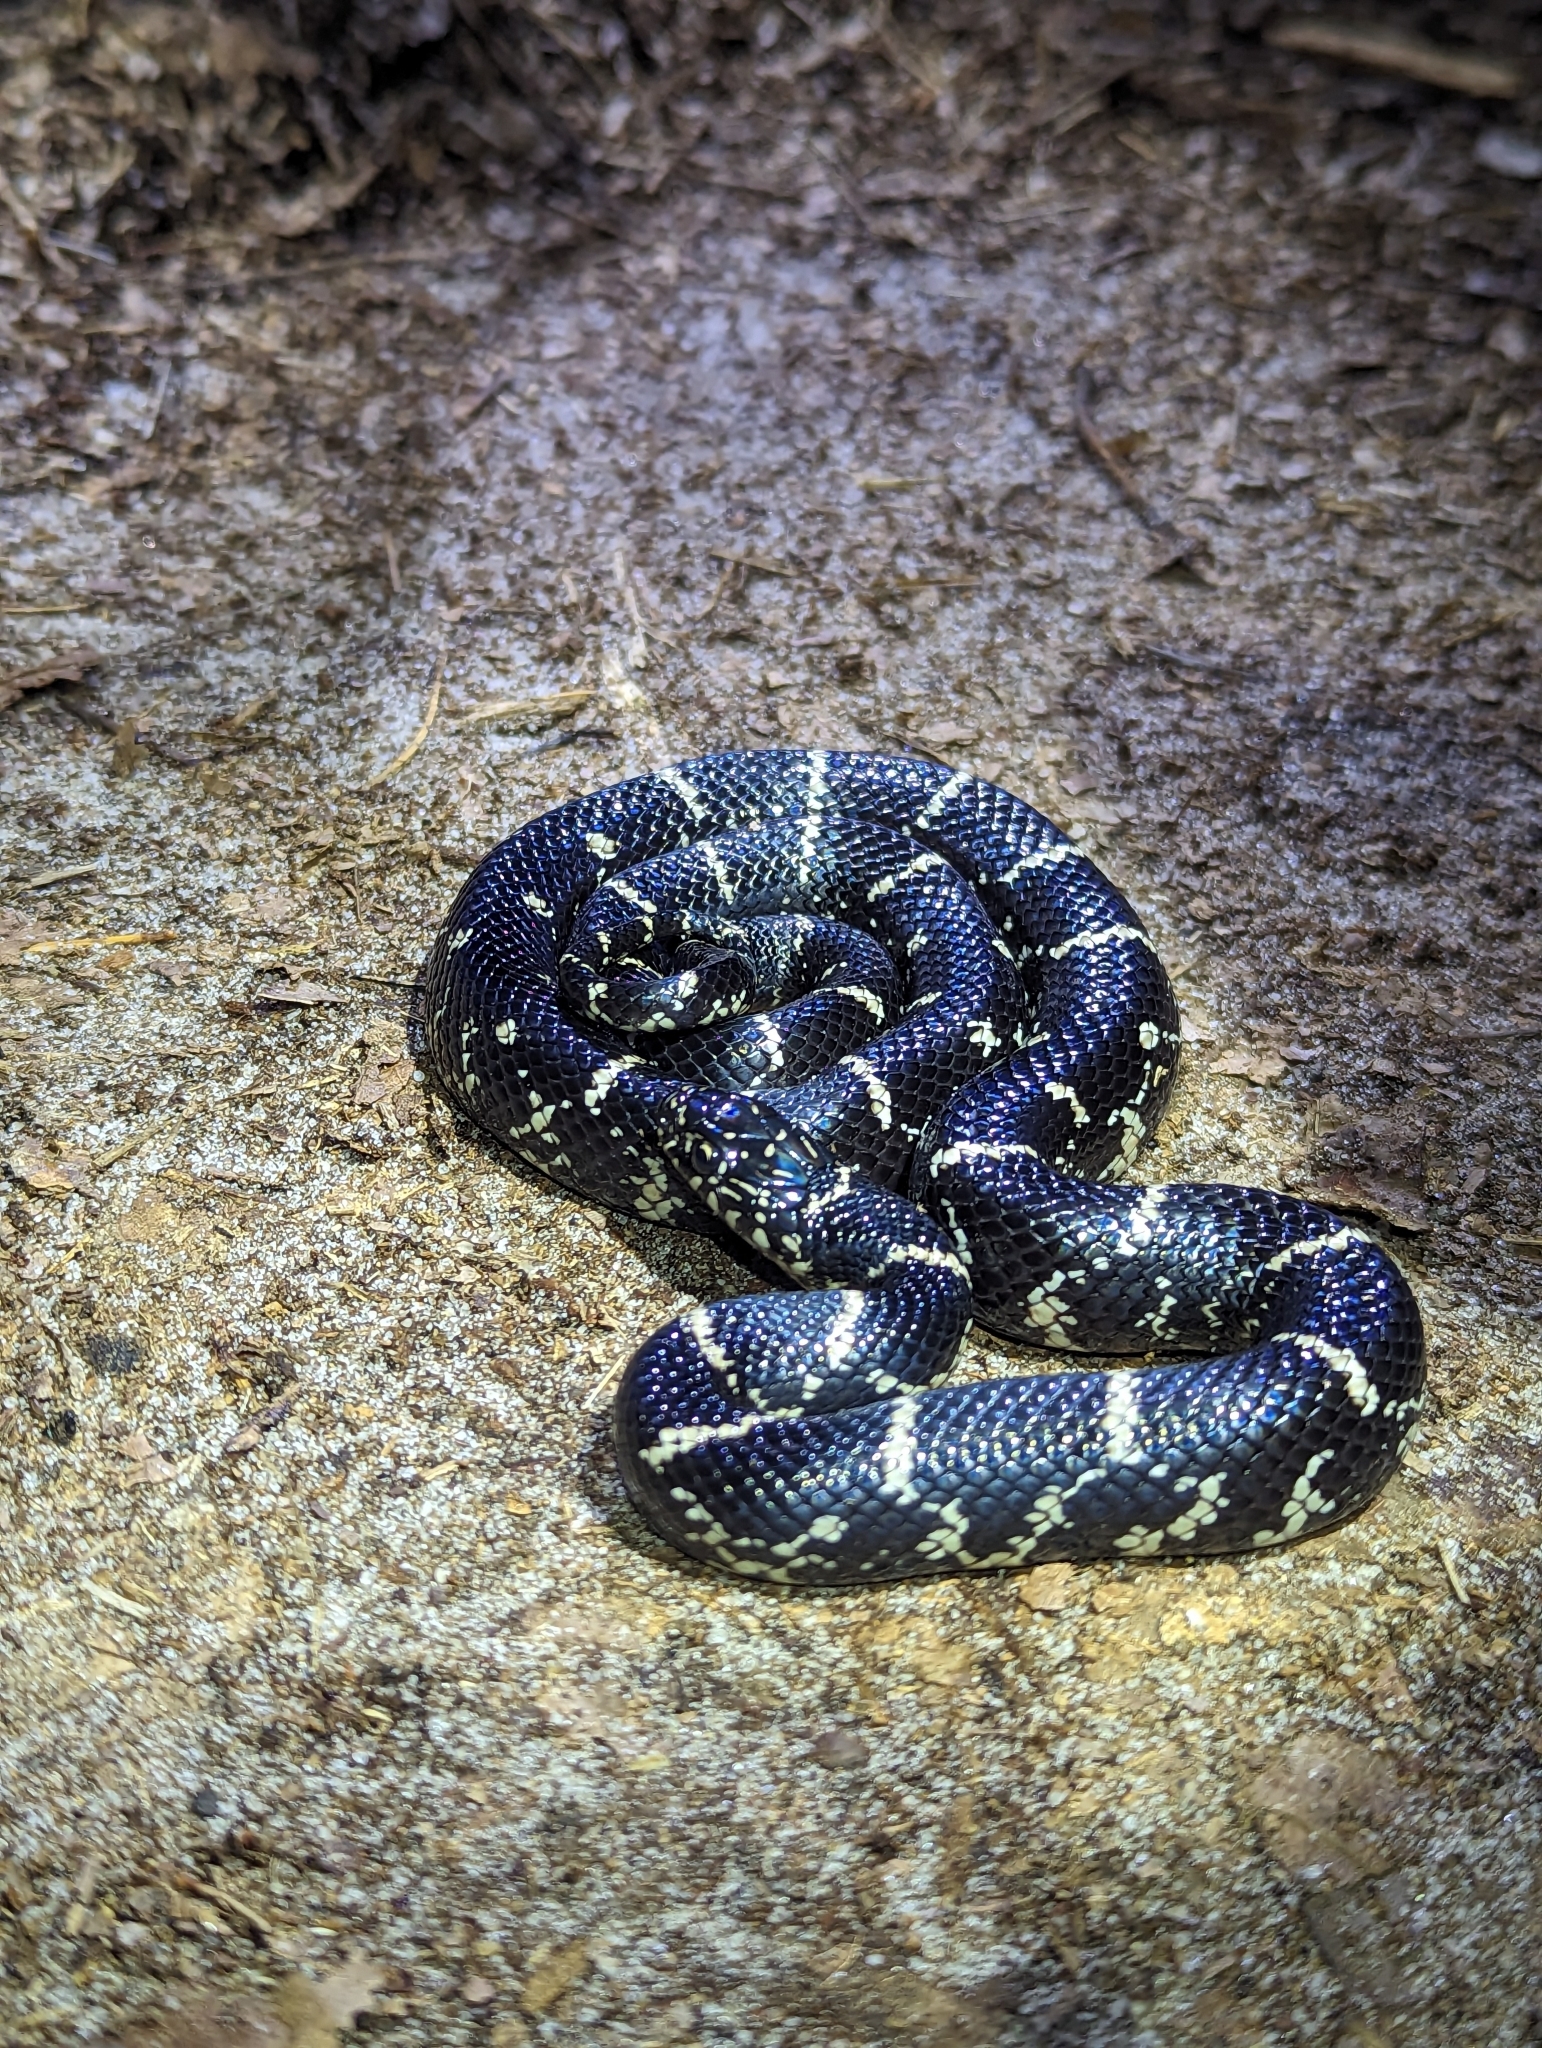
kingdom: Animalia
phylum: Chordata
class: Squamata
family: Colubridae
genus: Lampropeltis
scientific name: Lampropeltis getula
